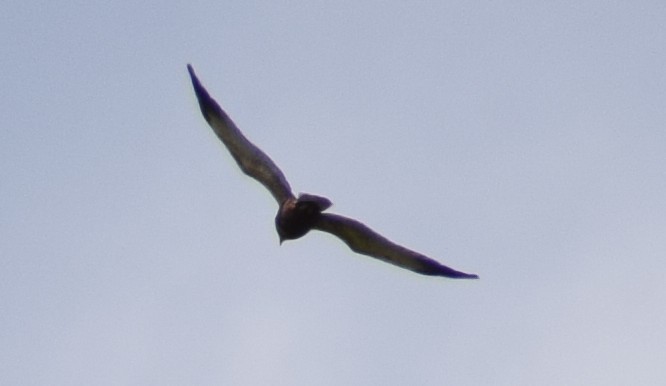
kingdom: Animalia
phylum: Chordata
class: Aves
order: Accipitriformes
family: Accipitridae
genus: Circus
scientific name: Circus aeruginosus
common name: Western marsh harrier
